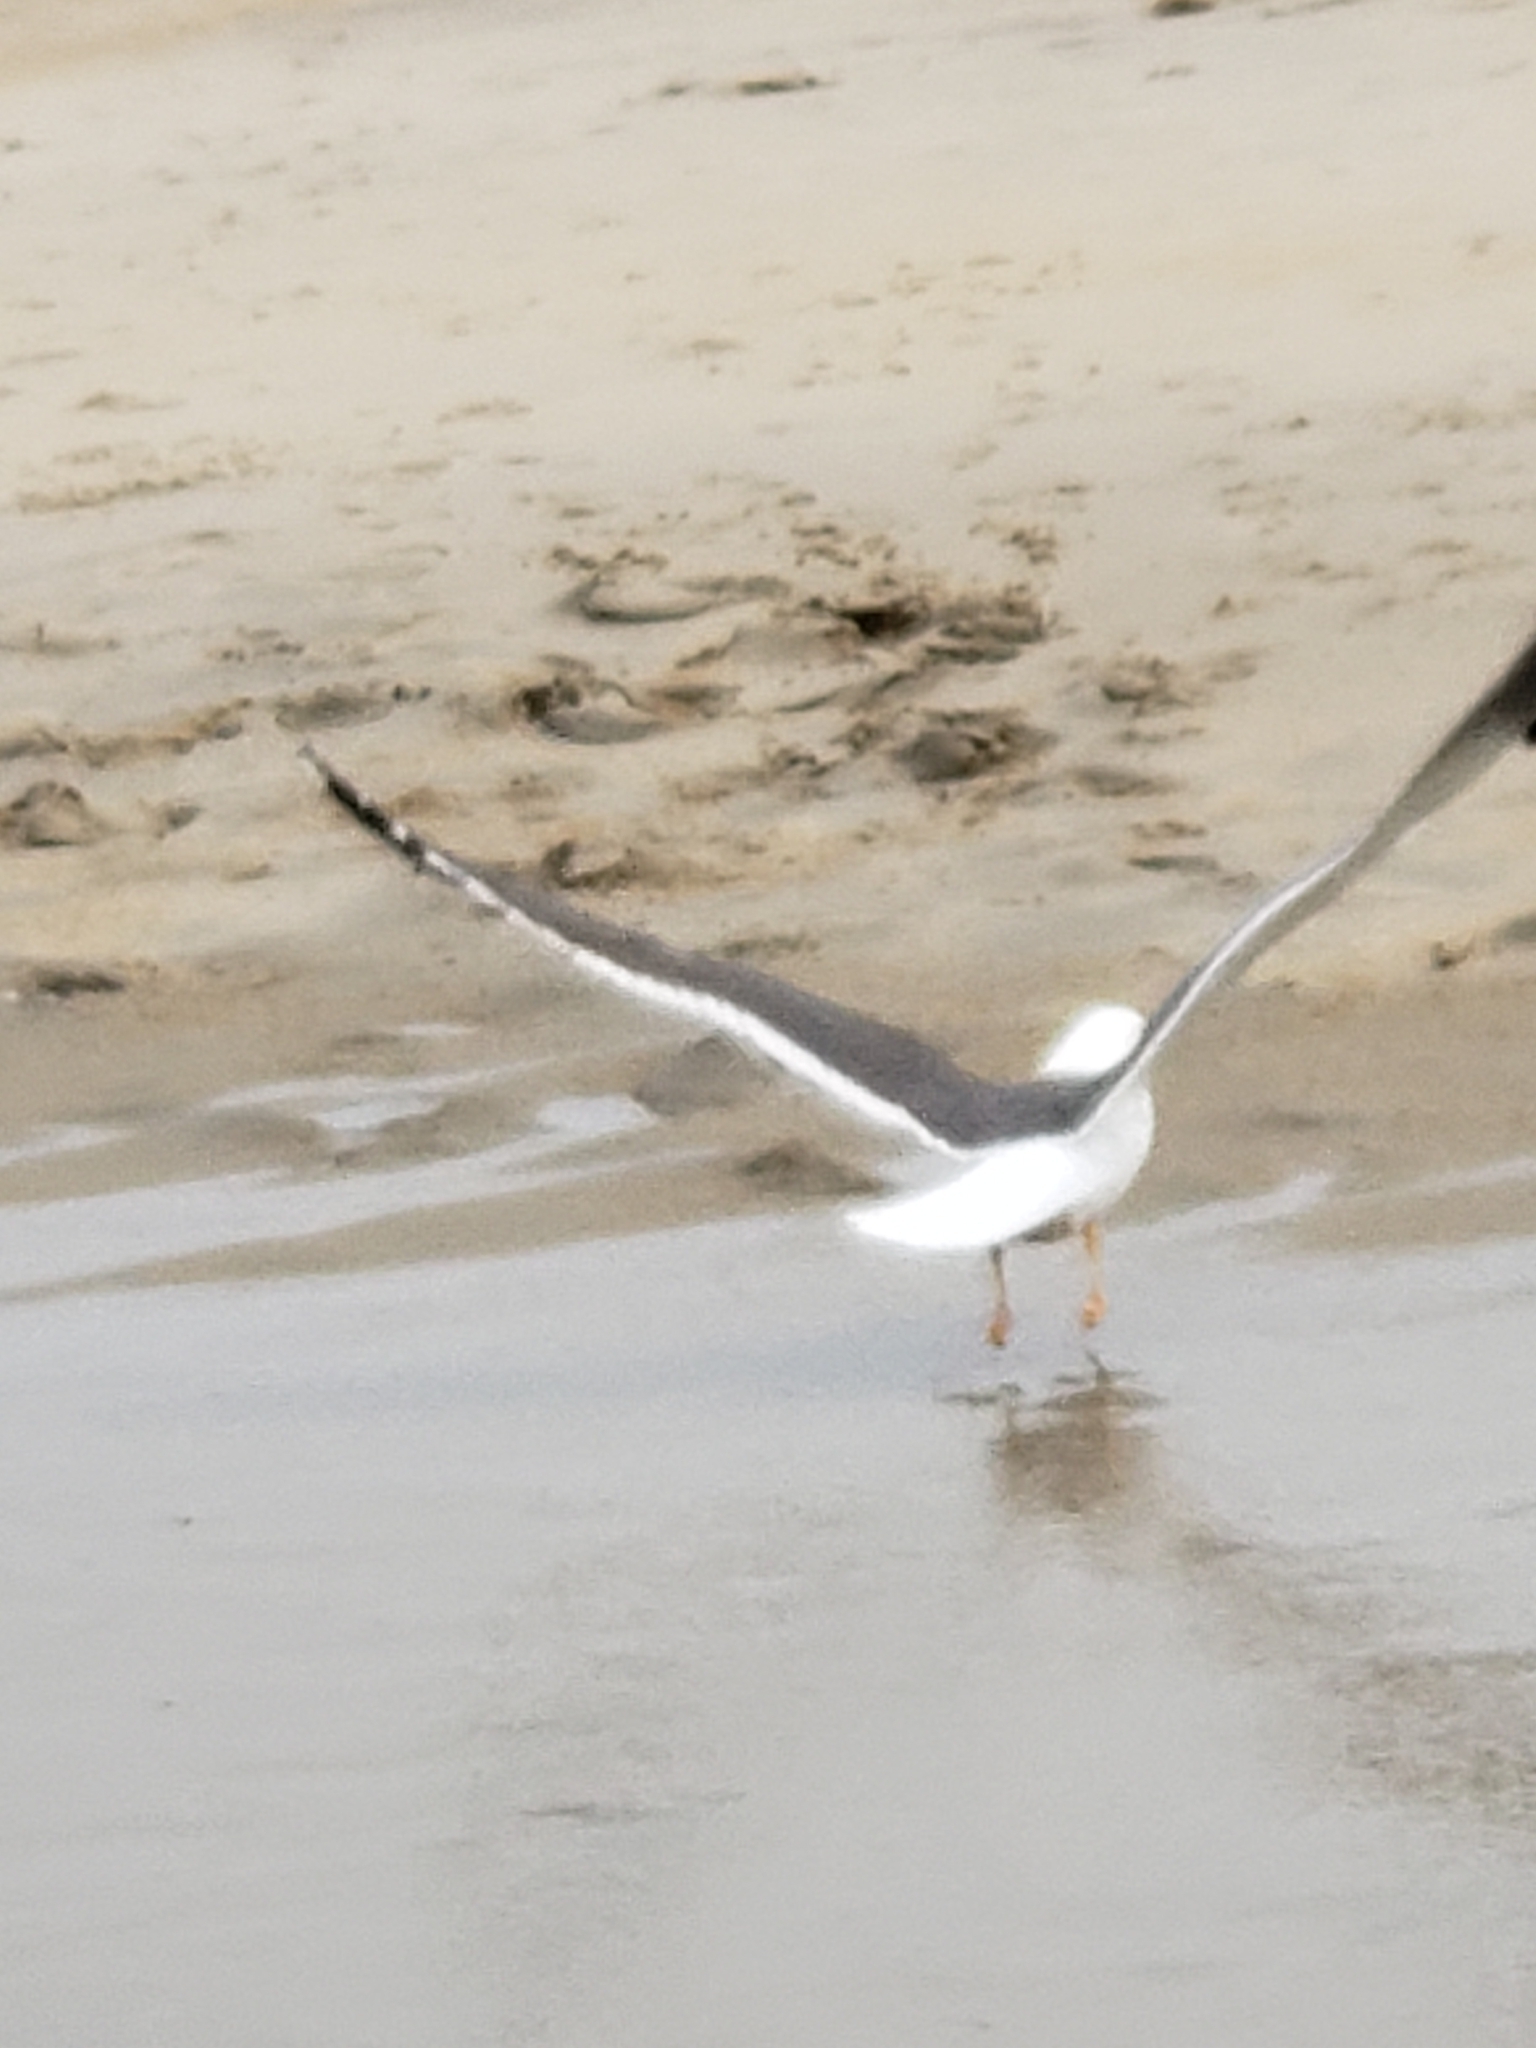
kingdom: Animalia
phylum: Chordata
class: Aves
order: Charadriiformes
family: Laridae
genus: Larus
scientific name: Larus fuscus
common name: Lesser black-backed gull
